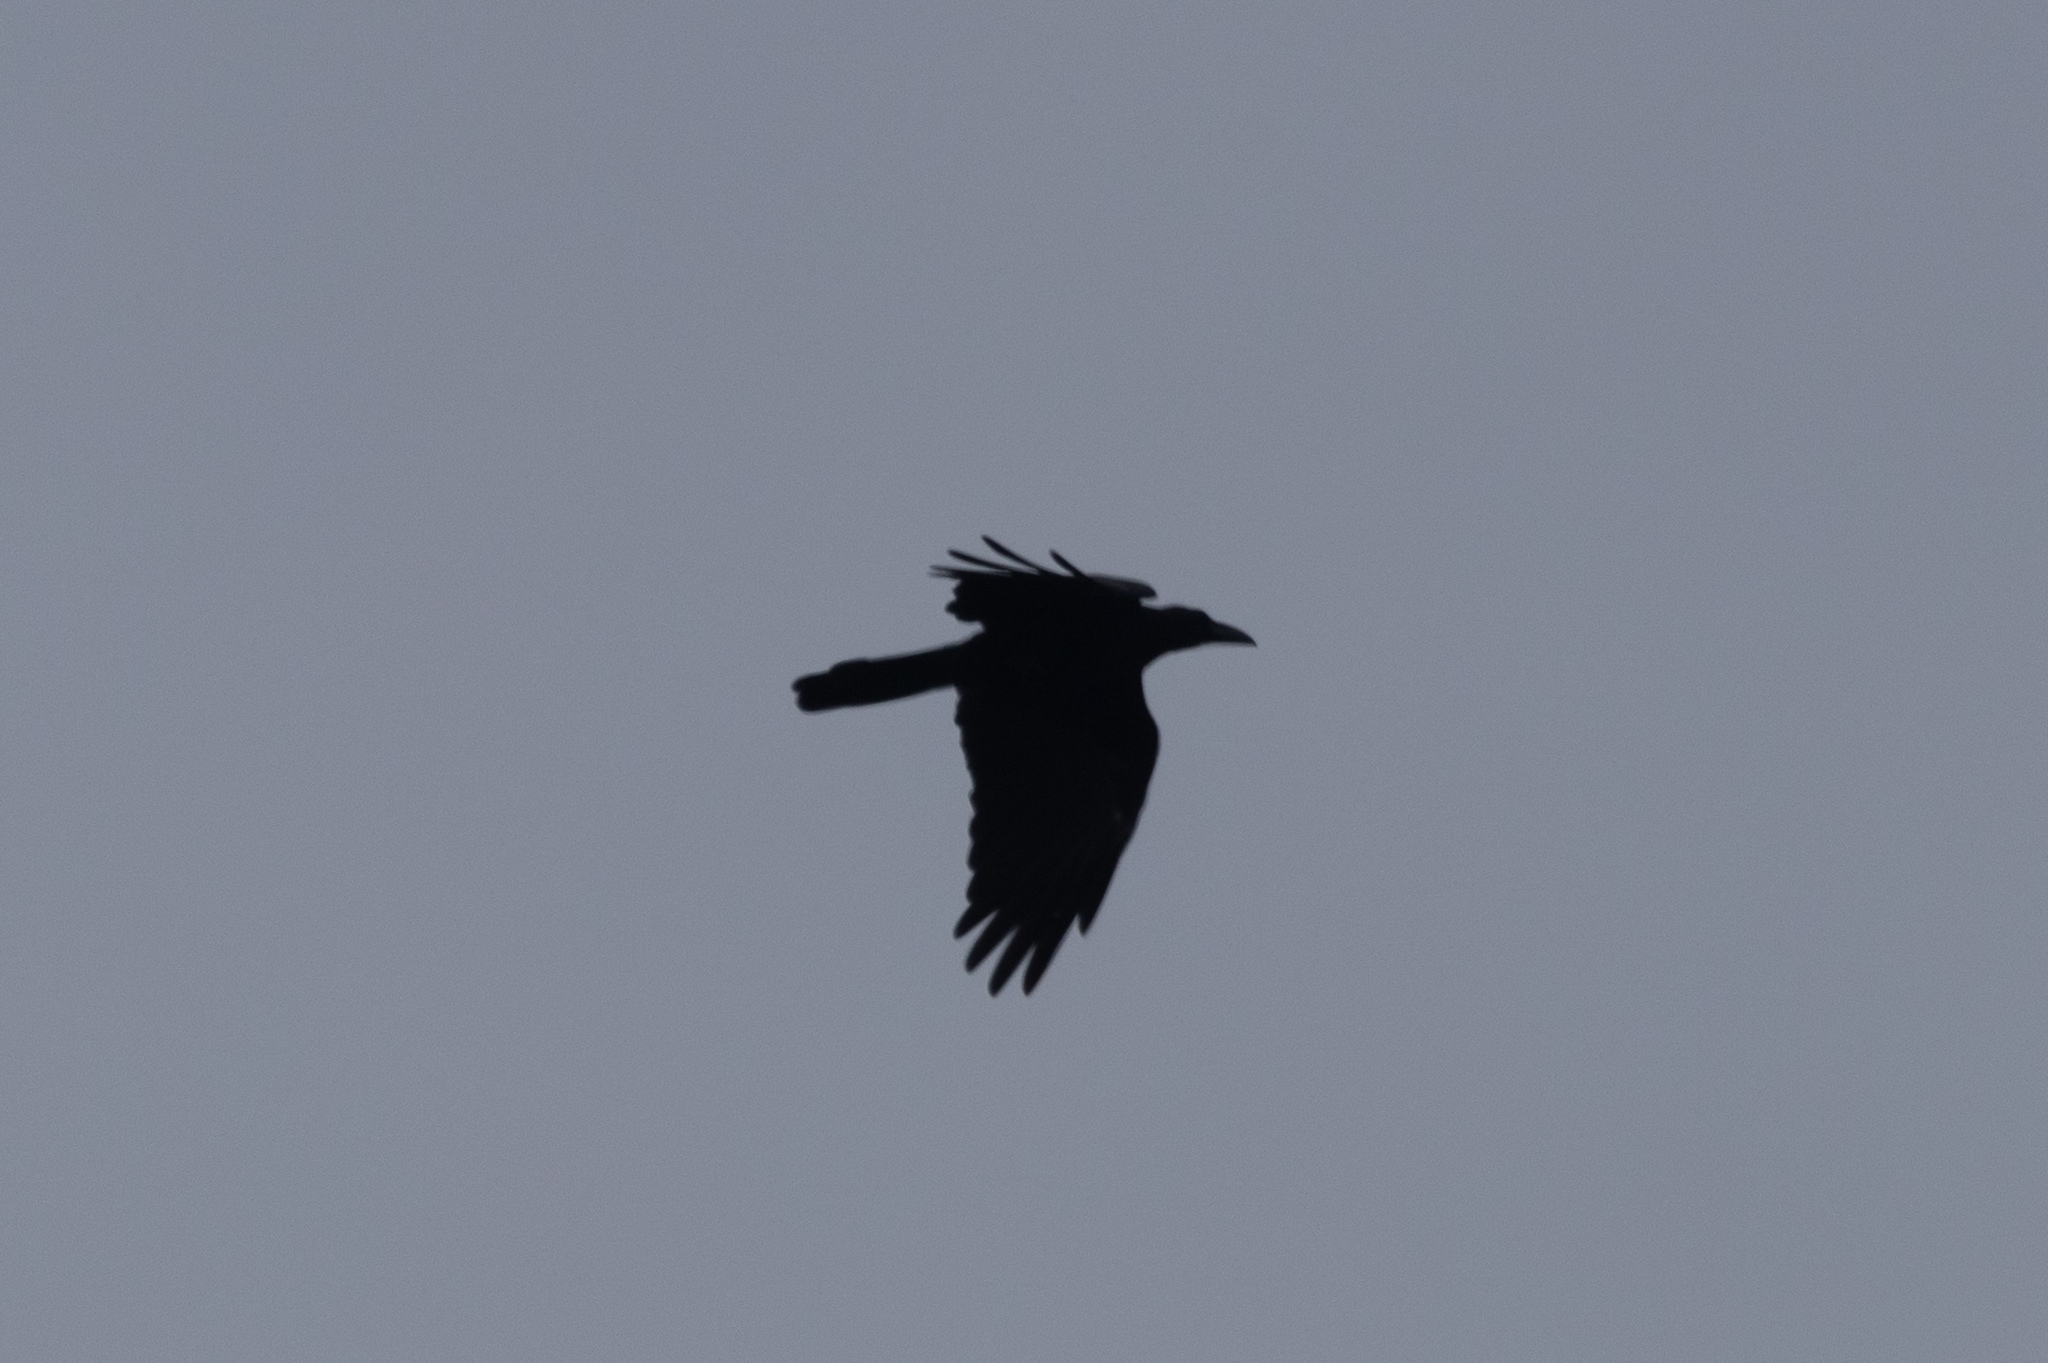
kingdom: Animalia
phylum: Chordata
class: Aves
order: Passeriformes
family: Corvidae
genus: Corvus
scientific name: Corvus macrorhynchos
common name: Large-billed crow
